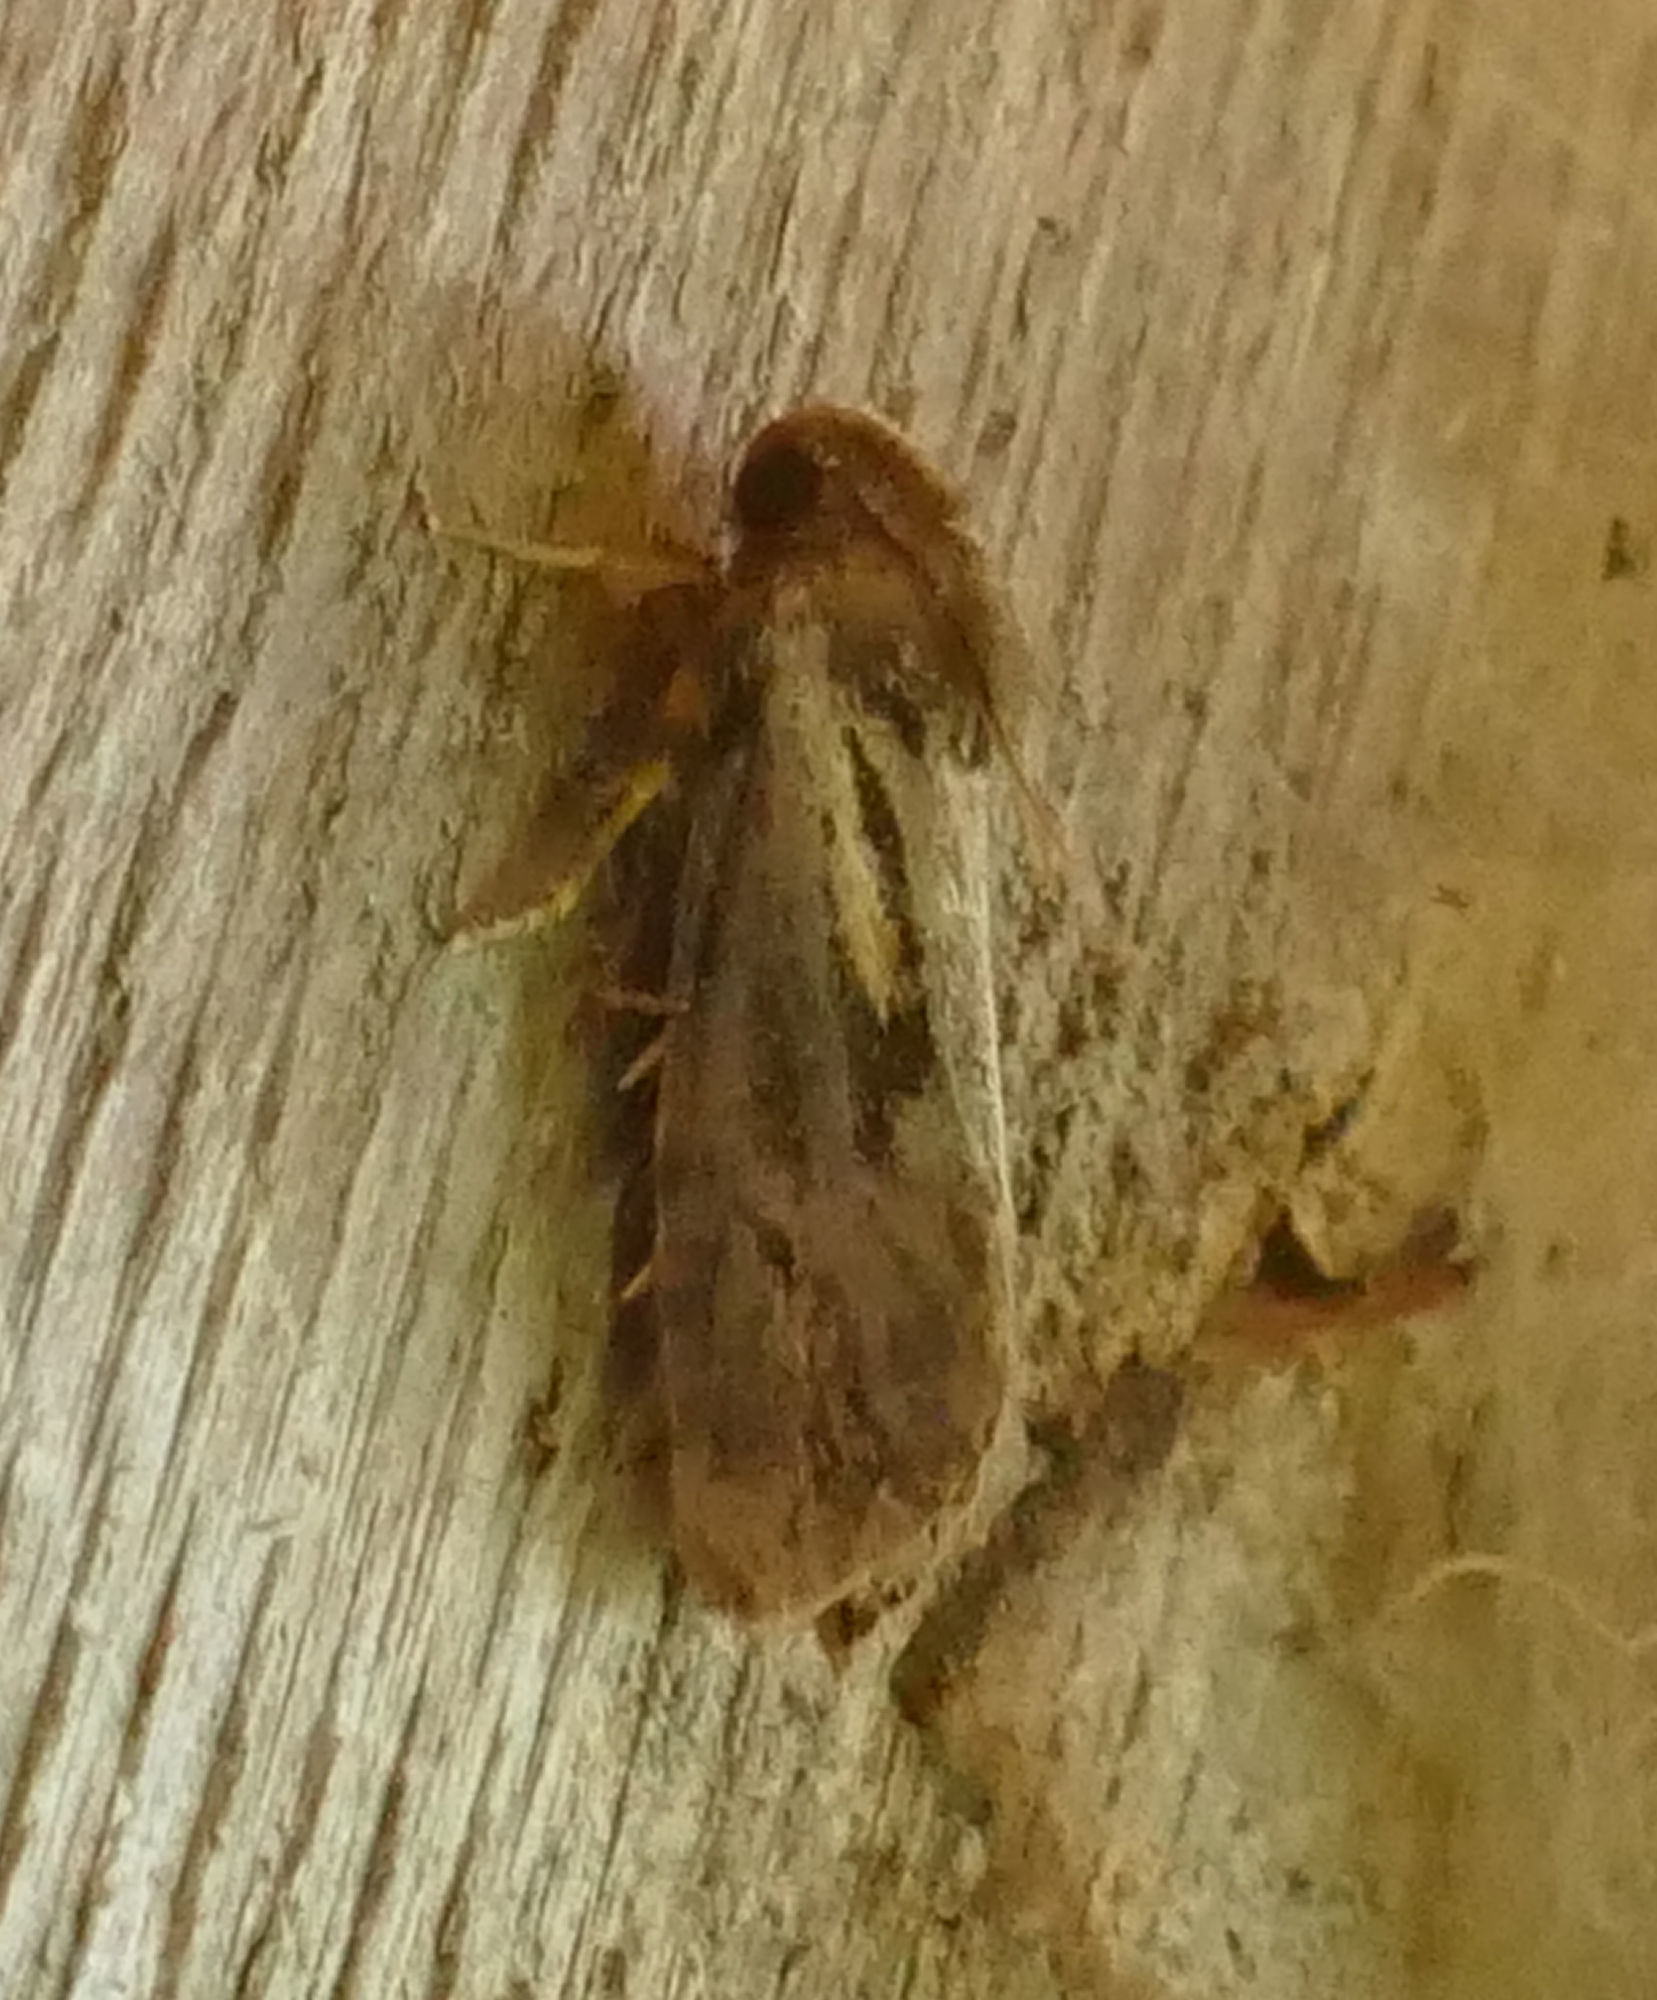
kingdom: Animalia
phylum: Arthropoda
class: Insecta
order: Lepidoptera
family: Tineidae
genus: Acrolophus
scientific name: Acrolophus popeanella
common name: Clemens' grass tubeworm moth
